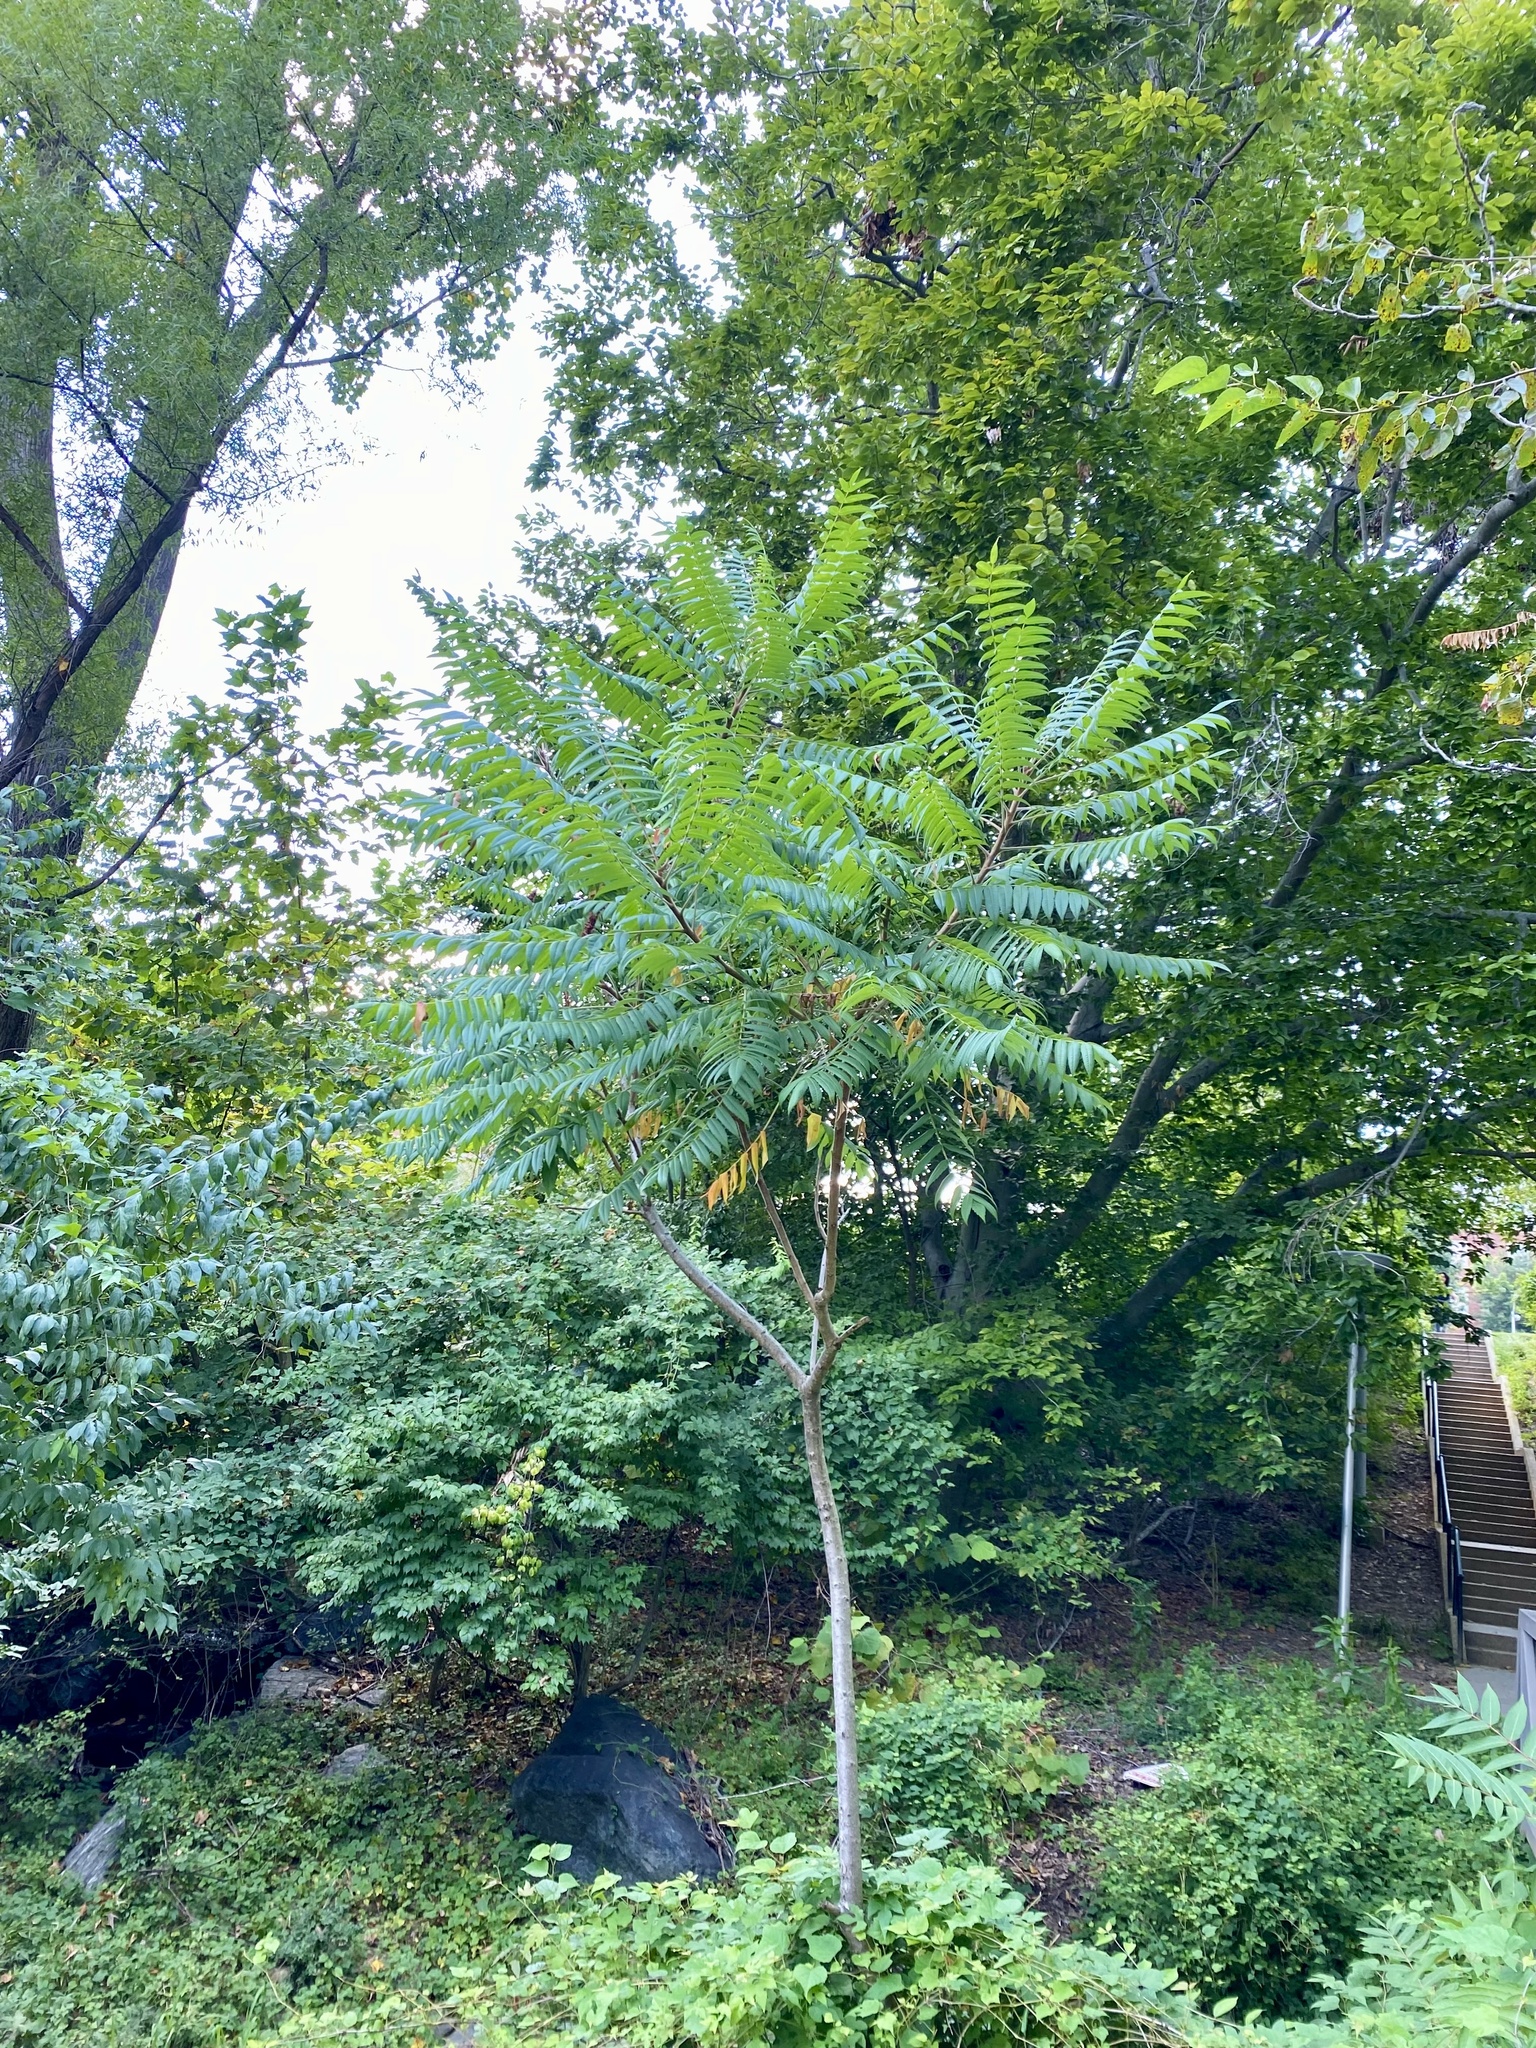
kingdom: Plantae
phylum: Tracheophyta
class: Magnoliopsida
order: Sapindales
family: Anacardiaceae
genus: Rhus
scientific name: Rhus typhina
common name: Staghorn sumac
